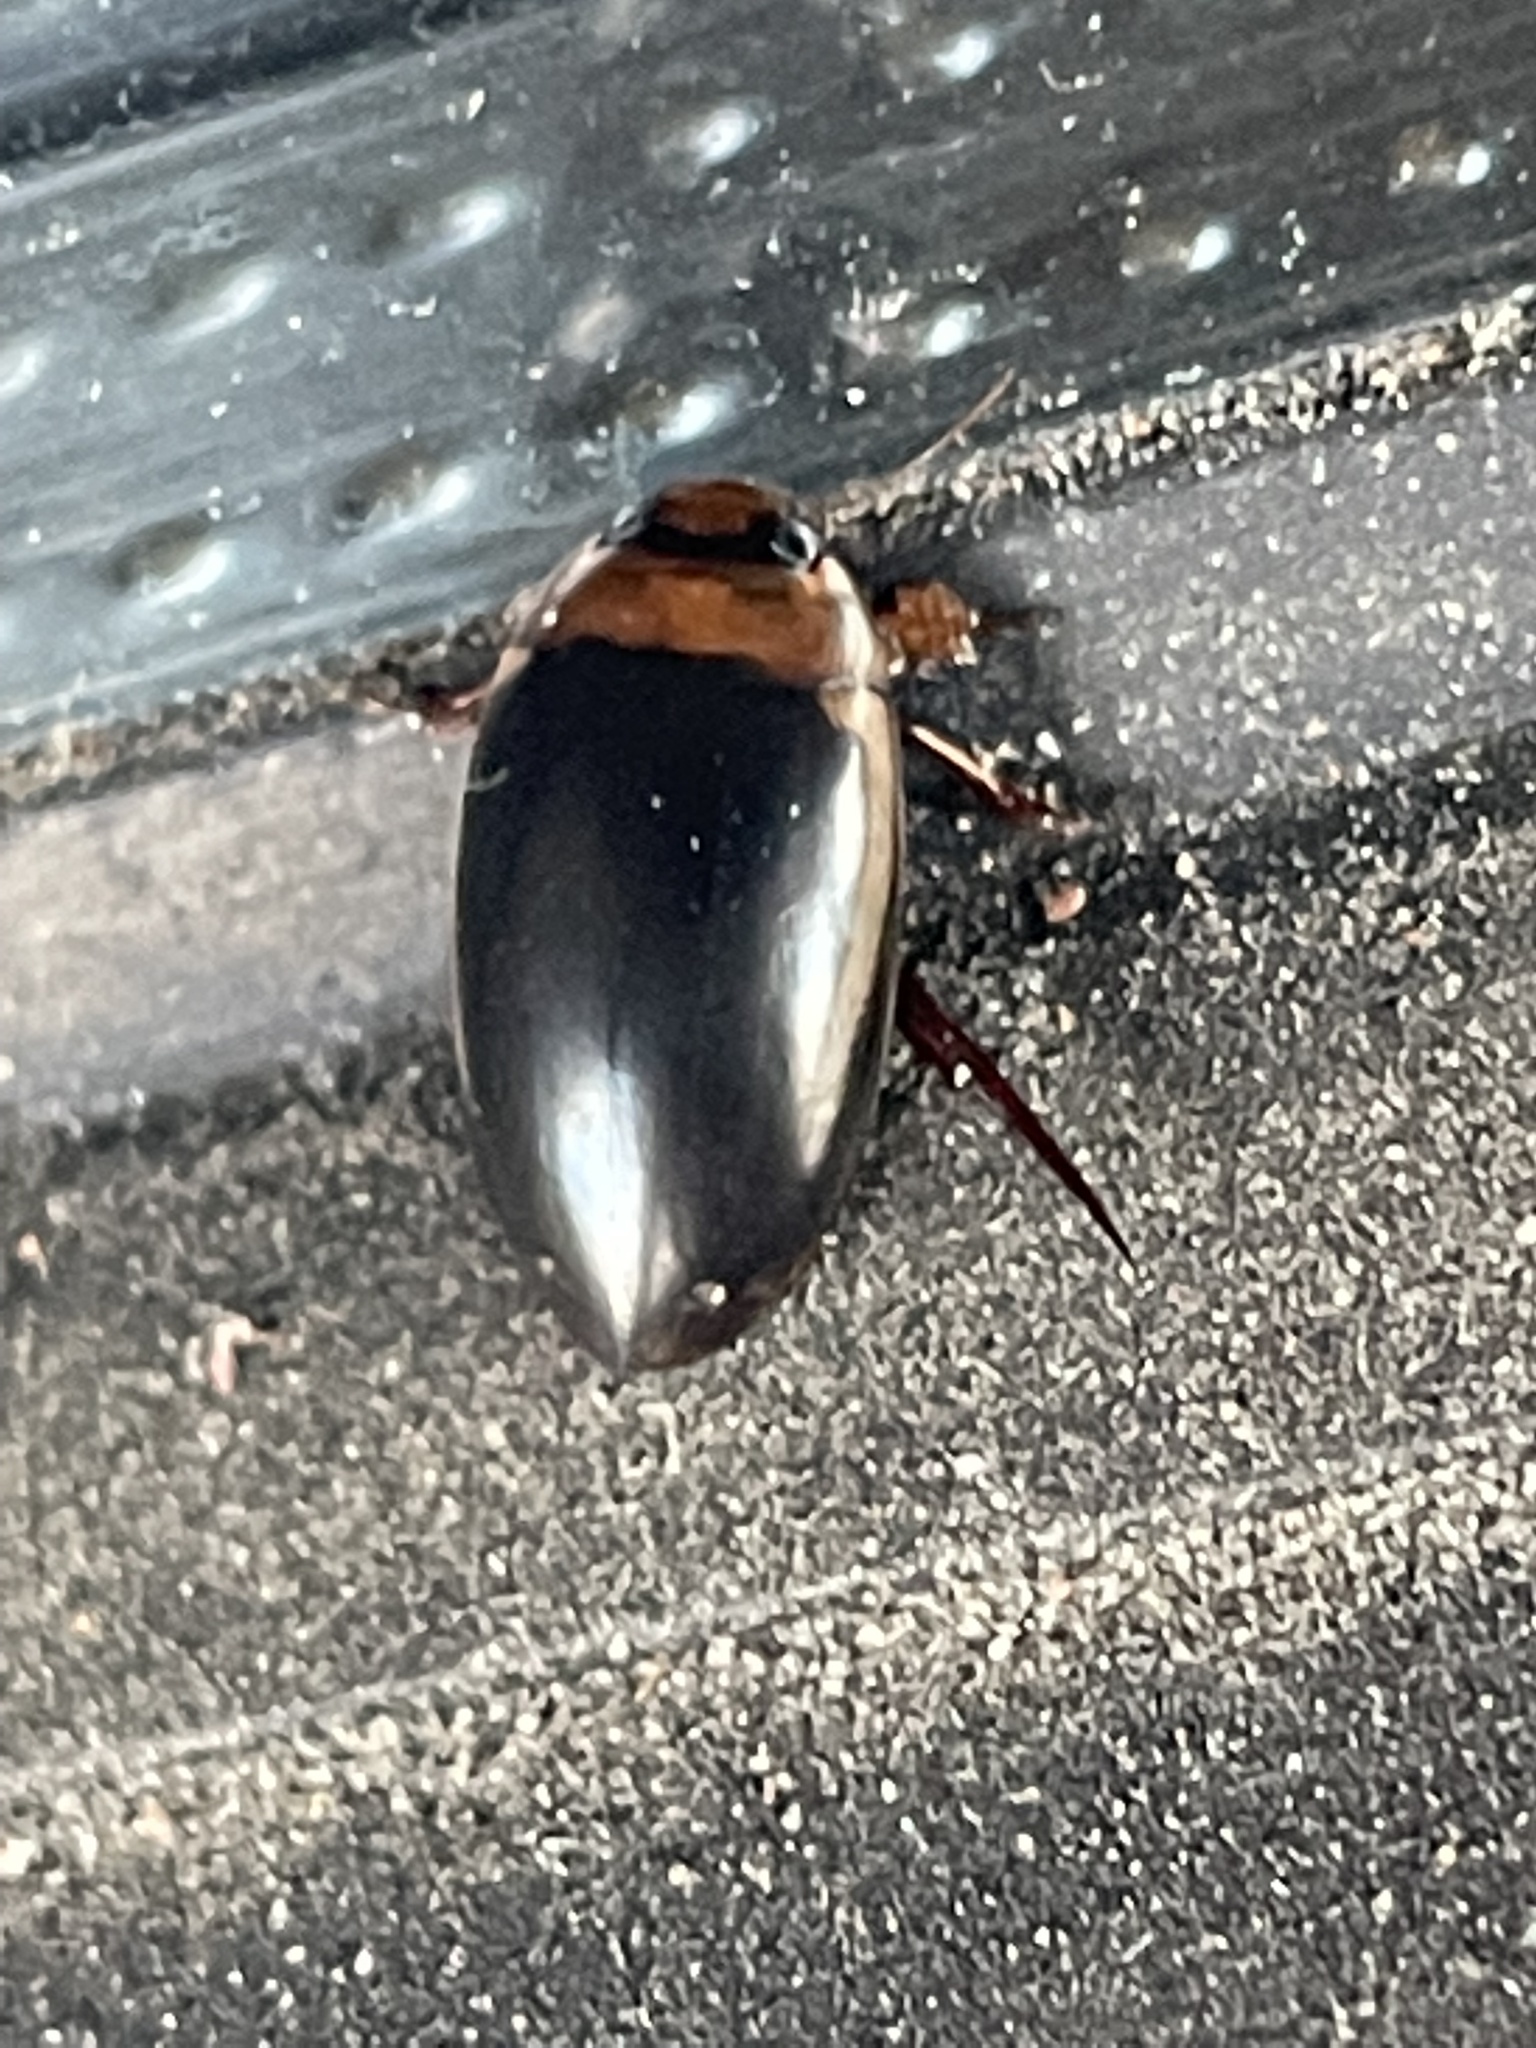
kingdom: Animalia
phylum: Arthropoda
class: Insecta
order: Coleoptera
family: Dytiscidae
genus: Hydaticus
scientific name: Hydaticus bimarginatus
